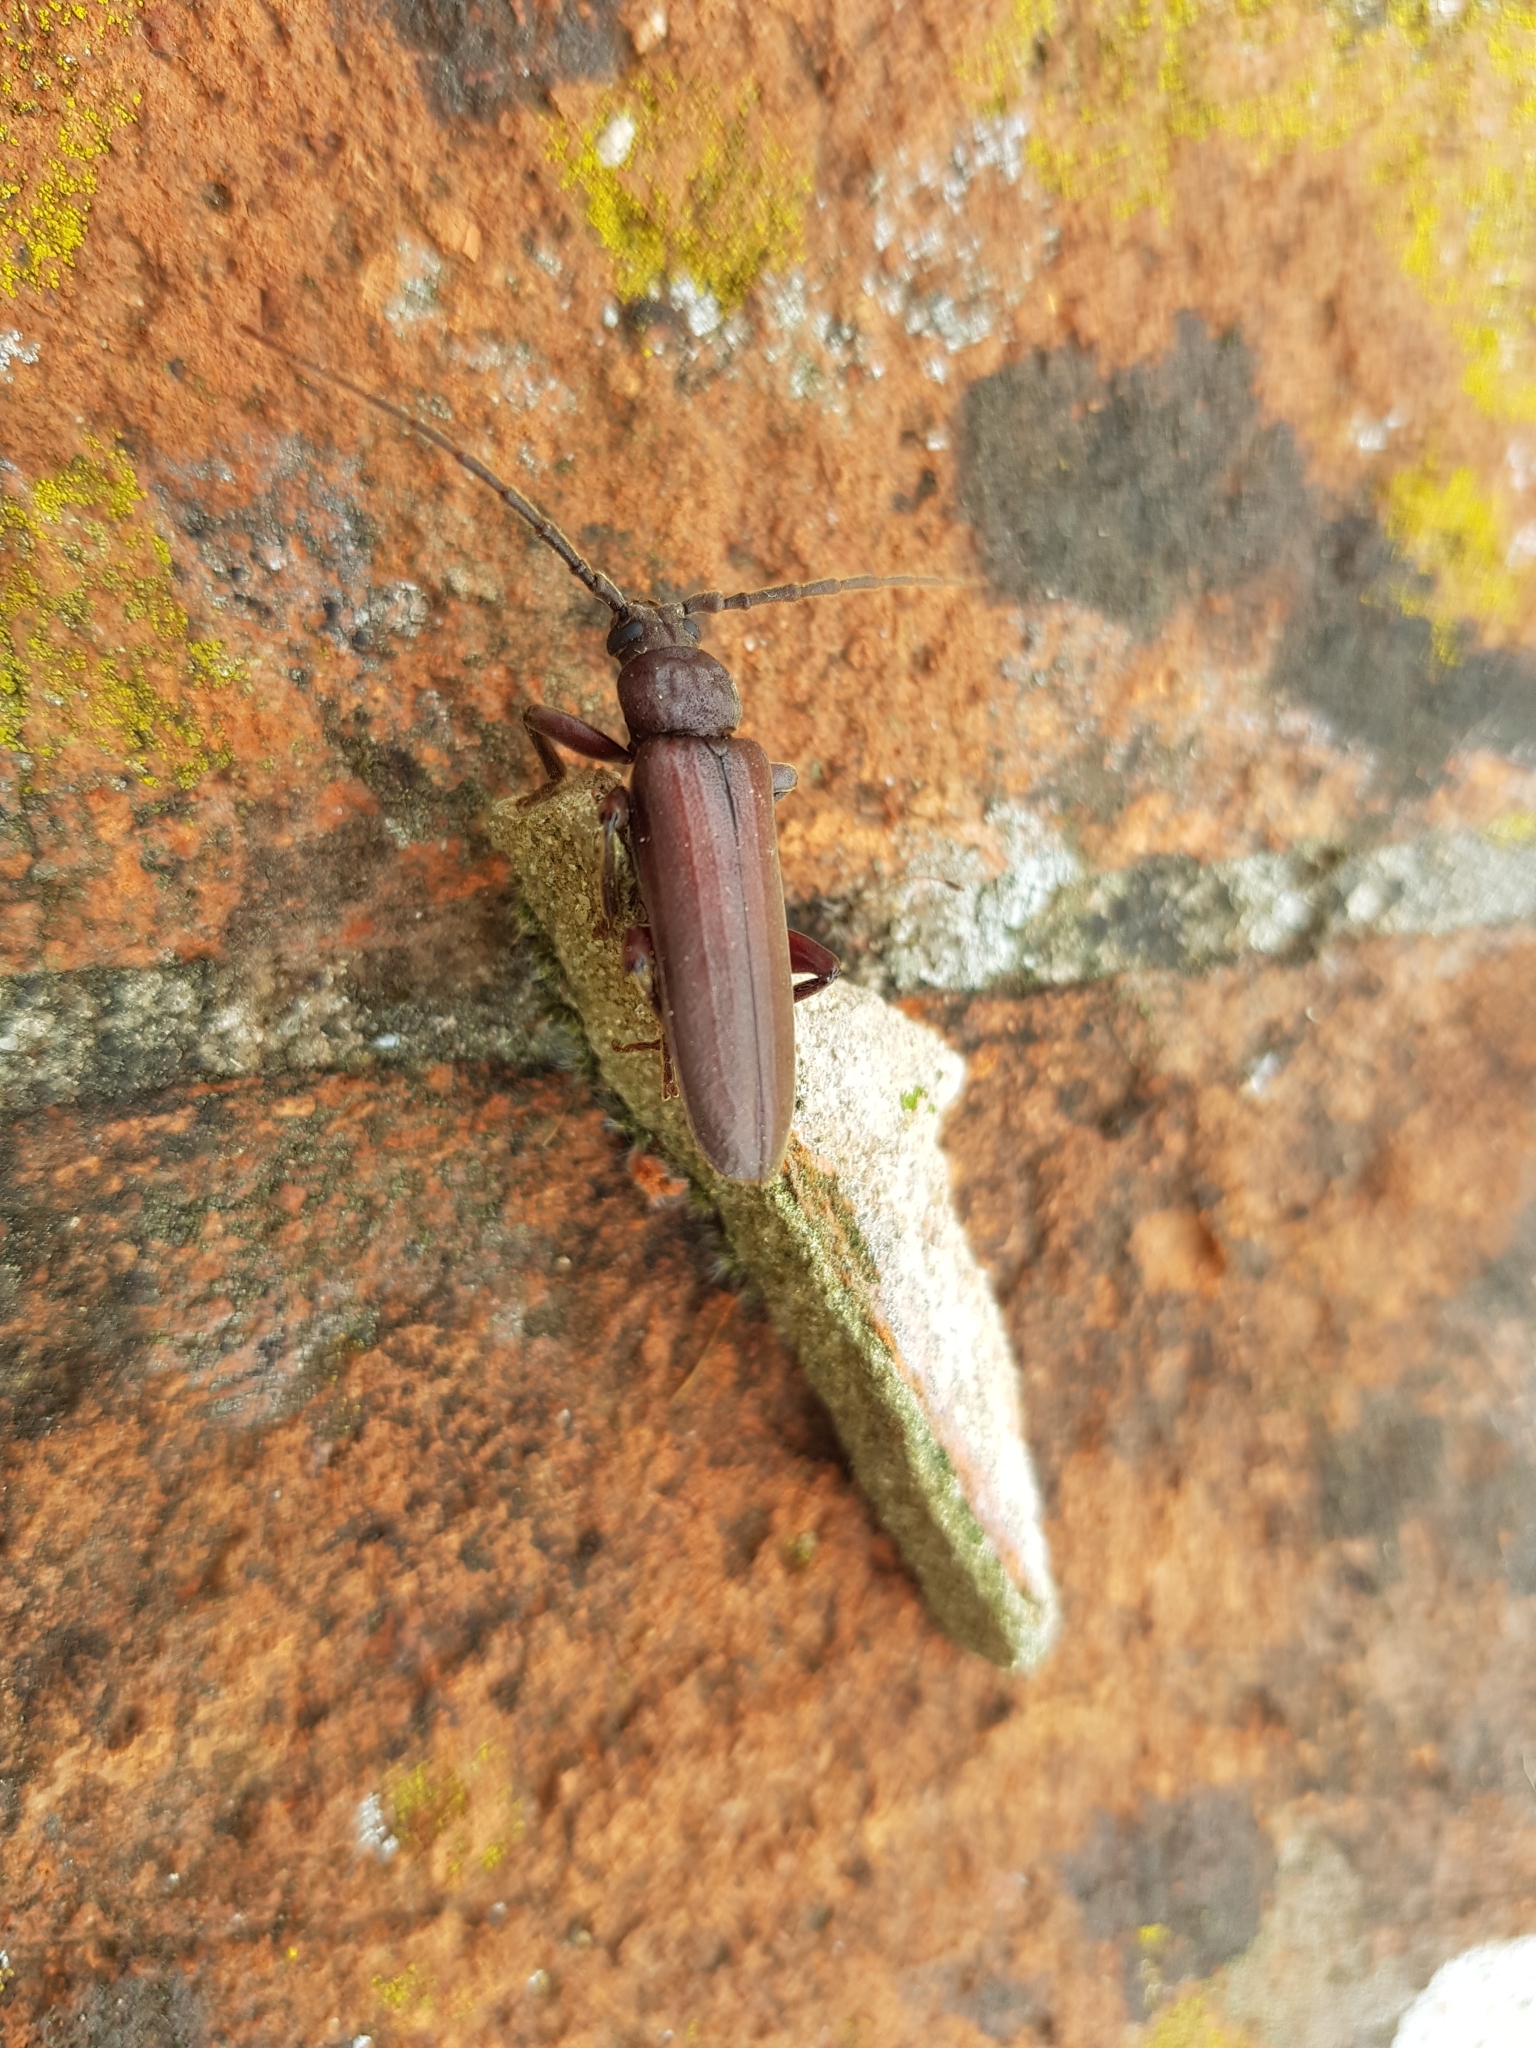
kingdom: Animalia
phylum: Arthropoda
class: Insecta
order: Coleoptera
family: Cerambycidae
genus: Arhopalus
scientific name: Arhopalus rusticus
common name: Rust pine borer
